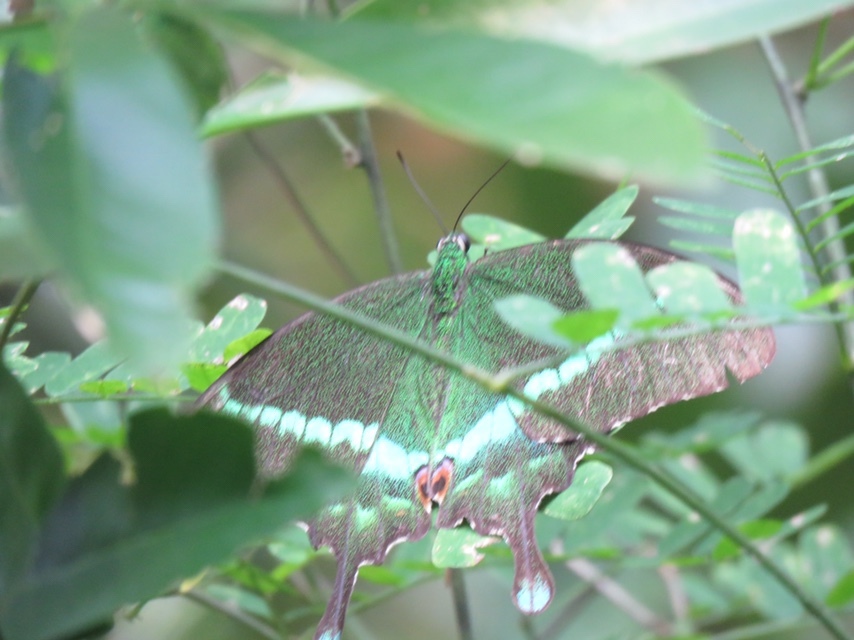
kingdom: Animalia
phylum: Arthropoda
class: Insecta
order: Lepidoptera
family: Papilionidae
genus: Papilio
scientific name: Papilio crino
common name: Common banded peacock
